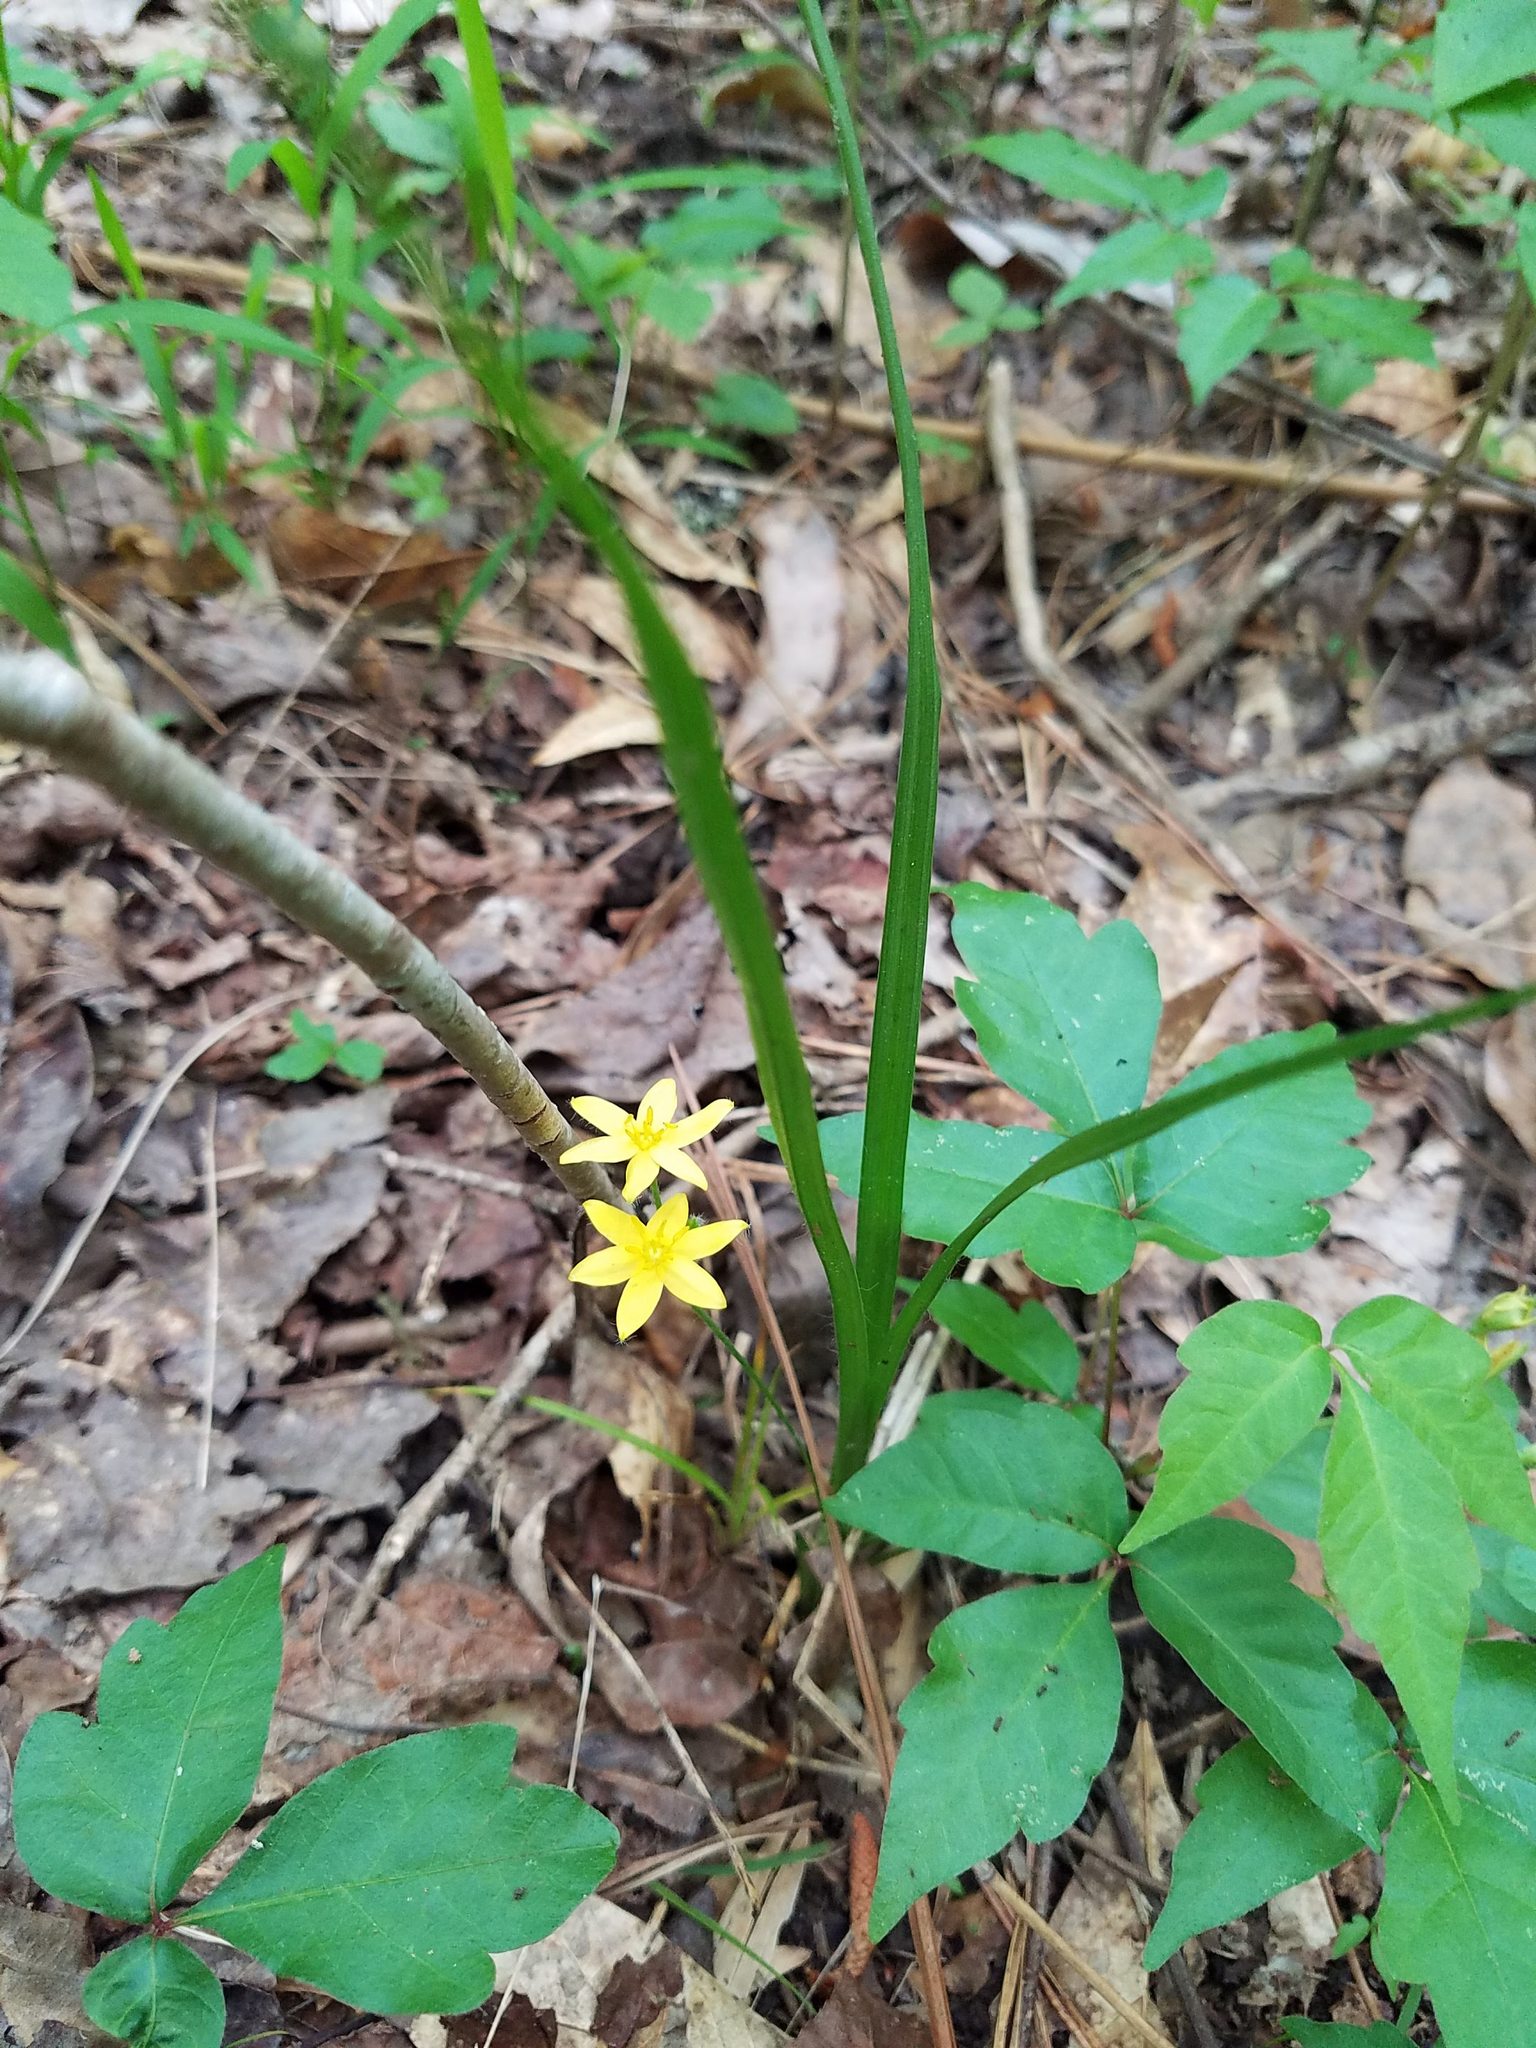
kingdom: Plantae
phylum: Tracheophyta
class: Liliopsida
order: Asparagales
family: Hypoxidaceae
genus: Hypoxis
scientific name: Hypoxis hirsuta
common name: Common goldstar
